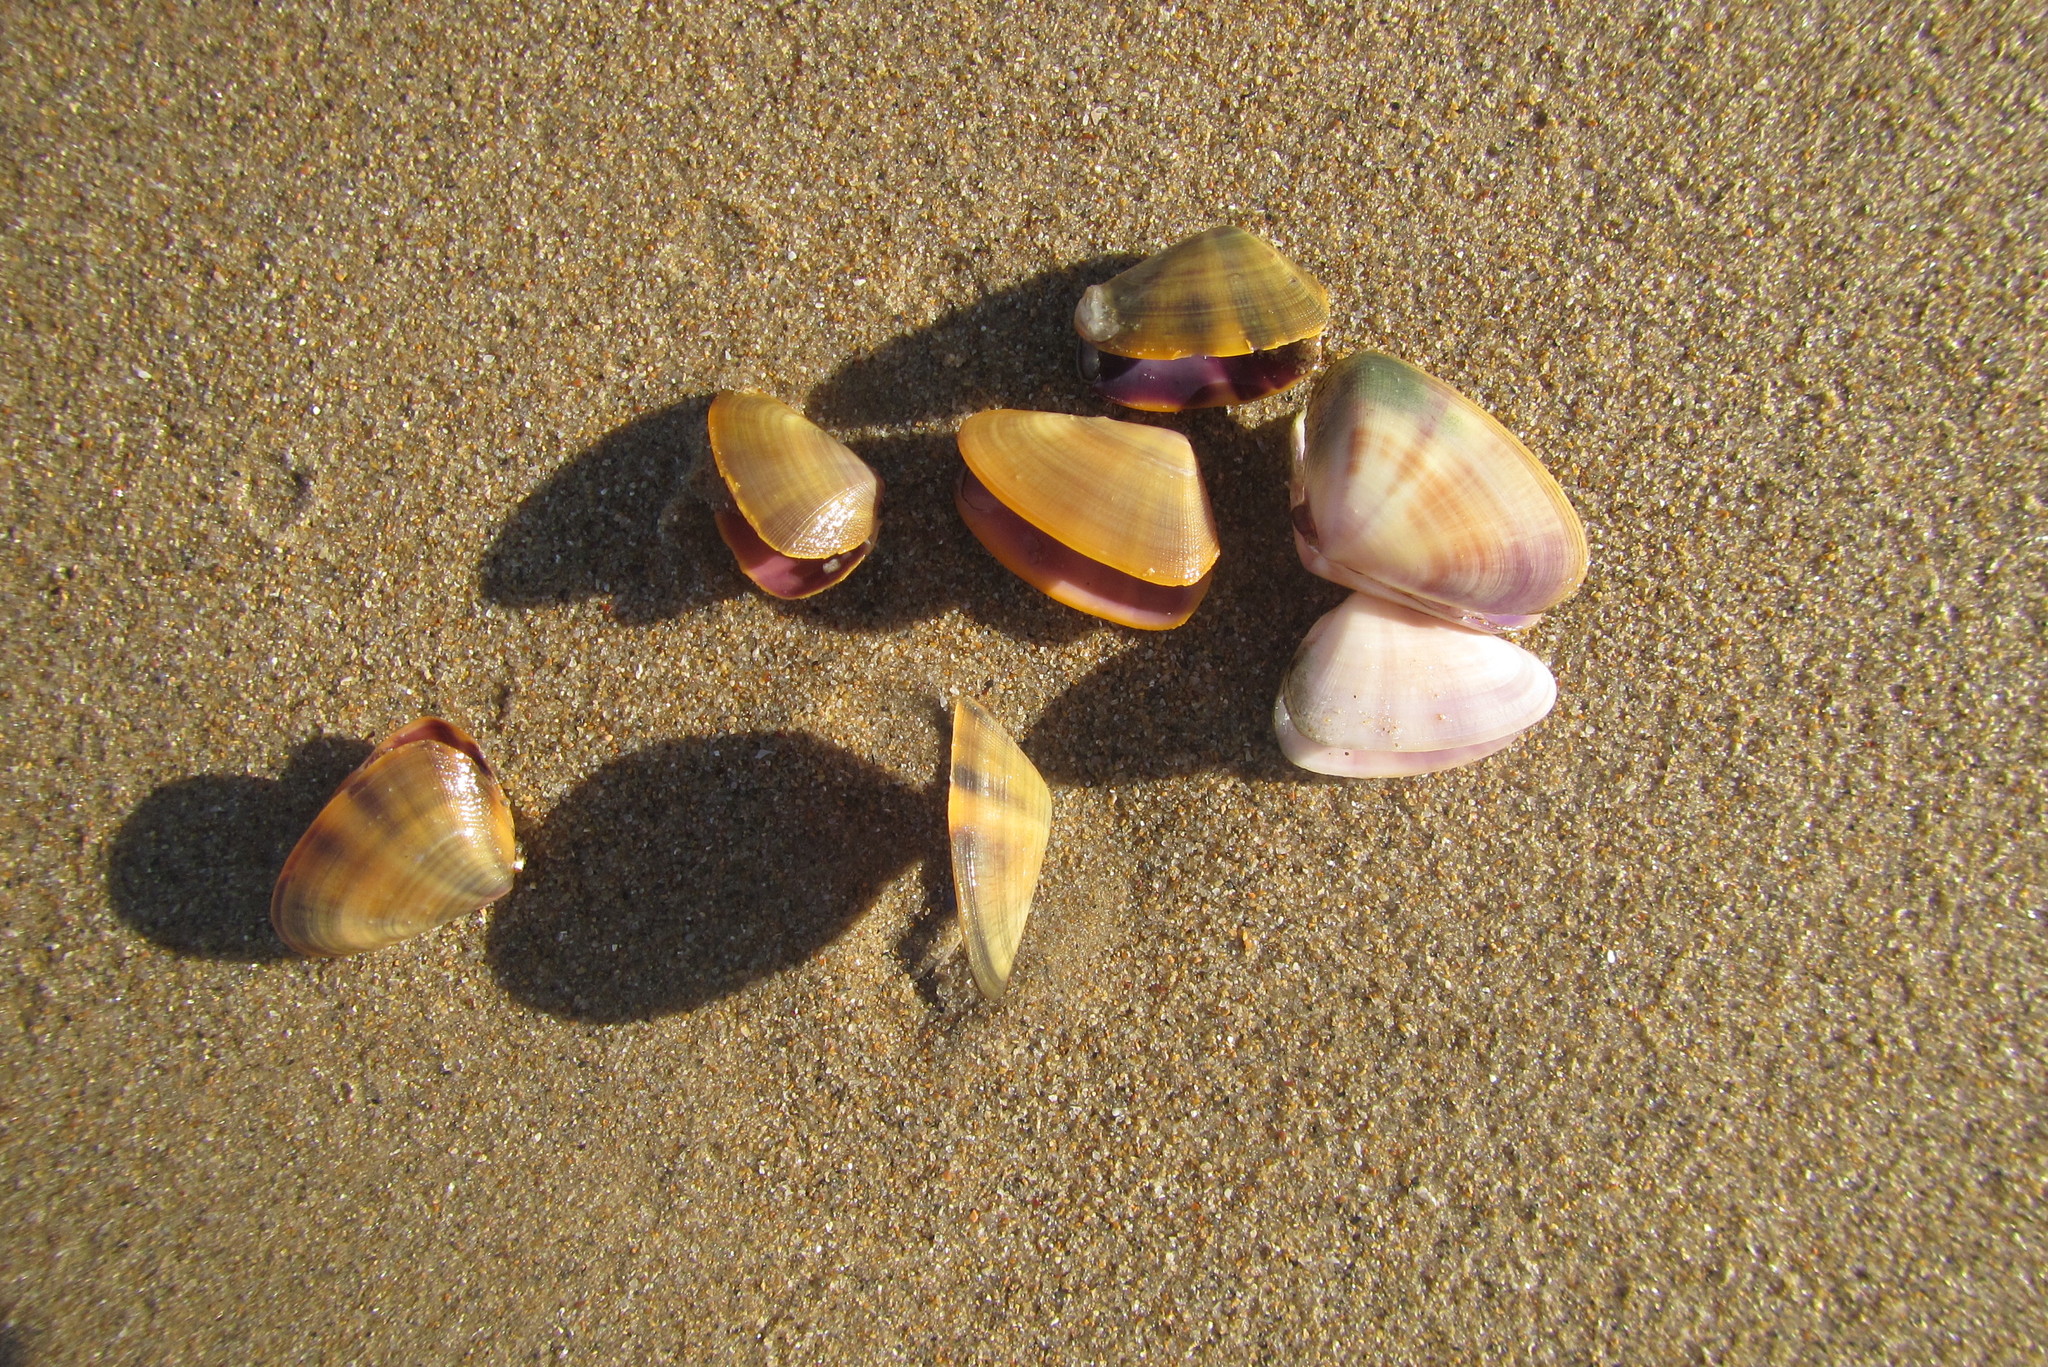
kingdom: Animalia
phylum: Mollusca
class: Bivalvia
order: Cardiida
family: Donacidae
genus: Latona
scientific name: Latona cuneata
